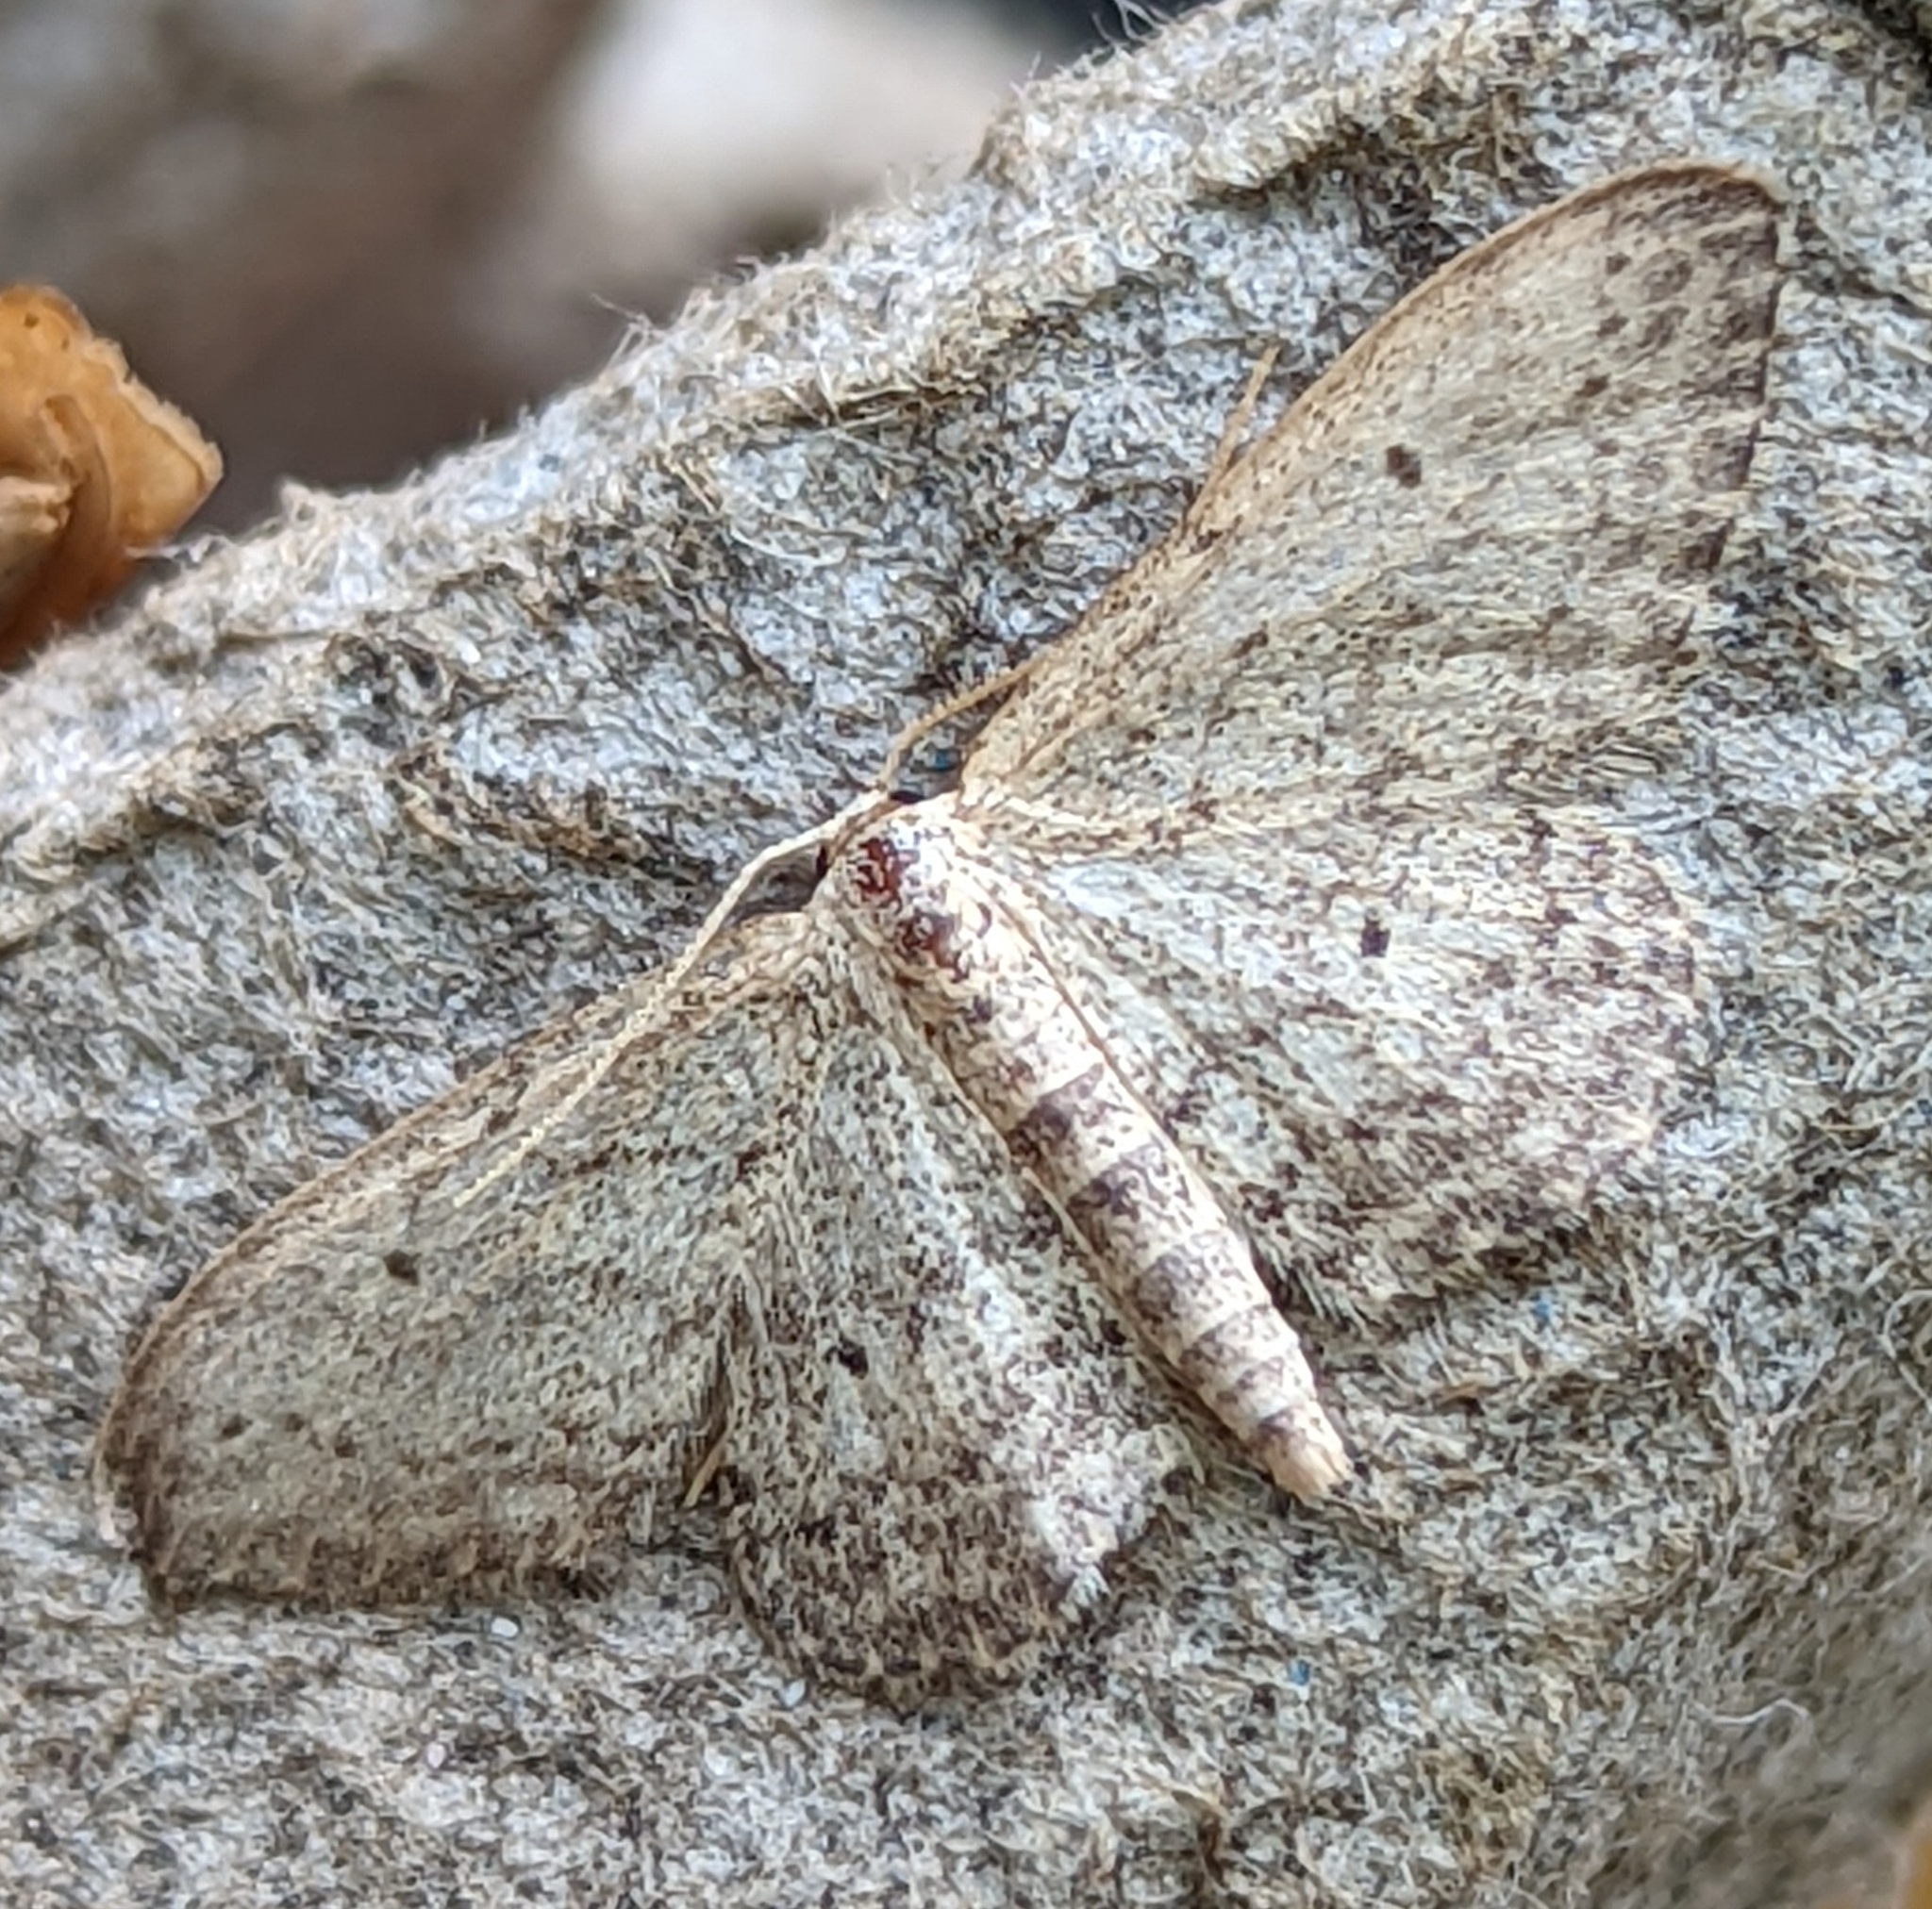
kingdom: Animalia
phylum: Arthropoda
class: Insecta
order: Lepidoptera
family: Geometridae
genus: Idaea
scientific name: Idaea seriata
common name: Small dusty wave
